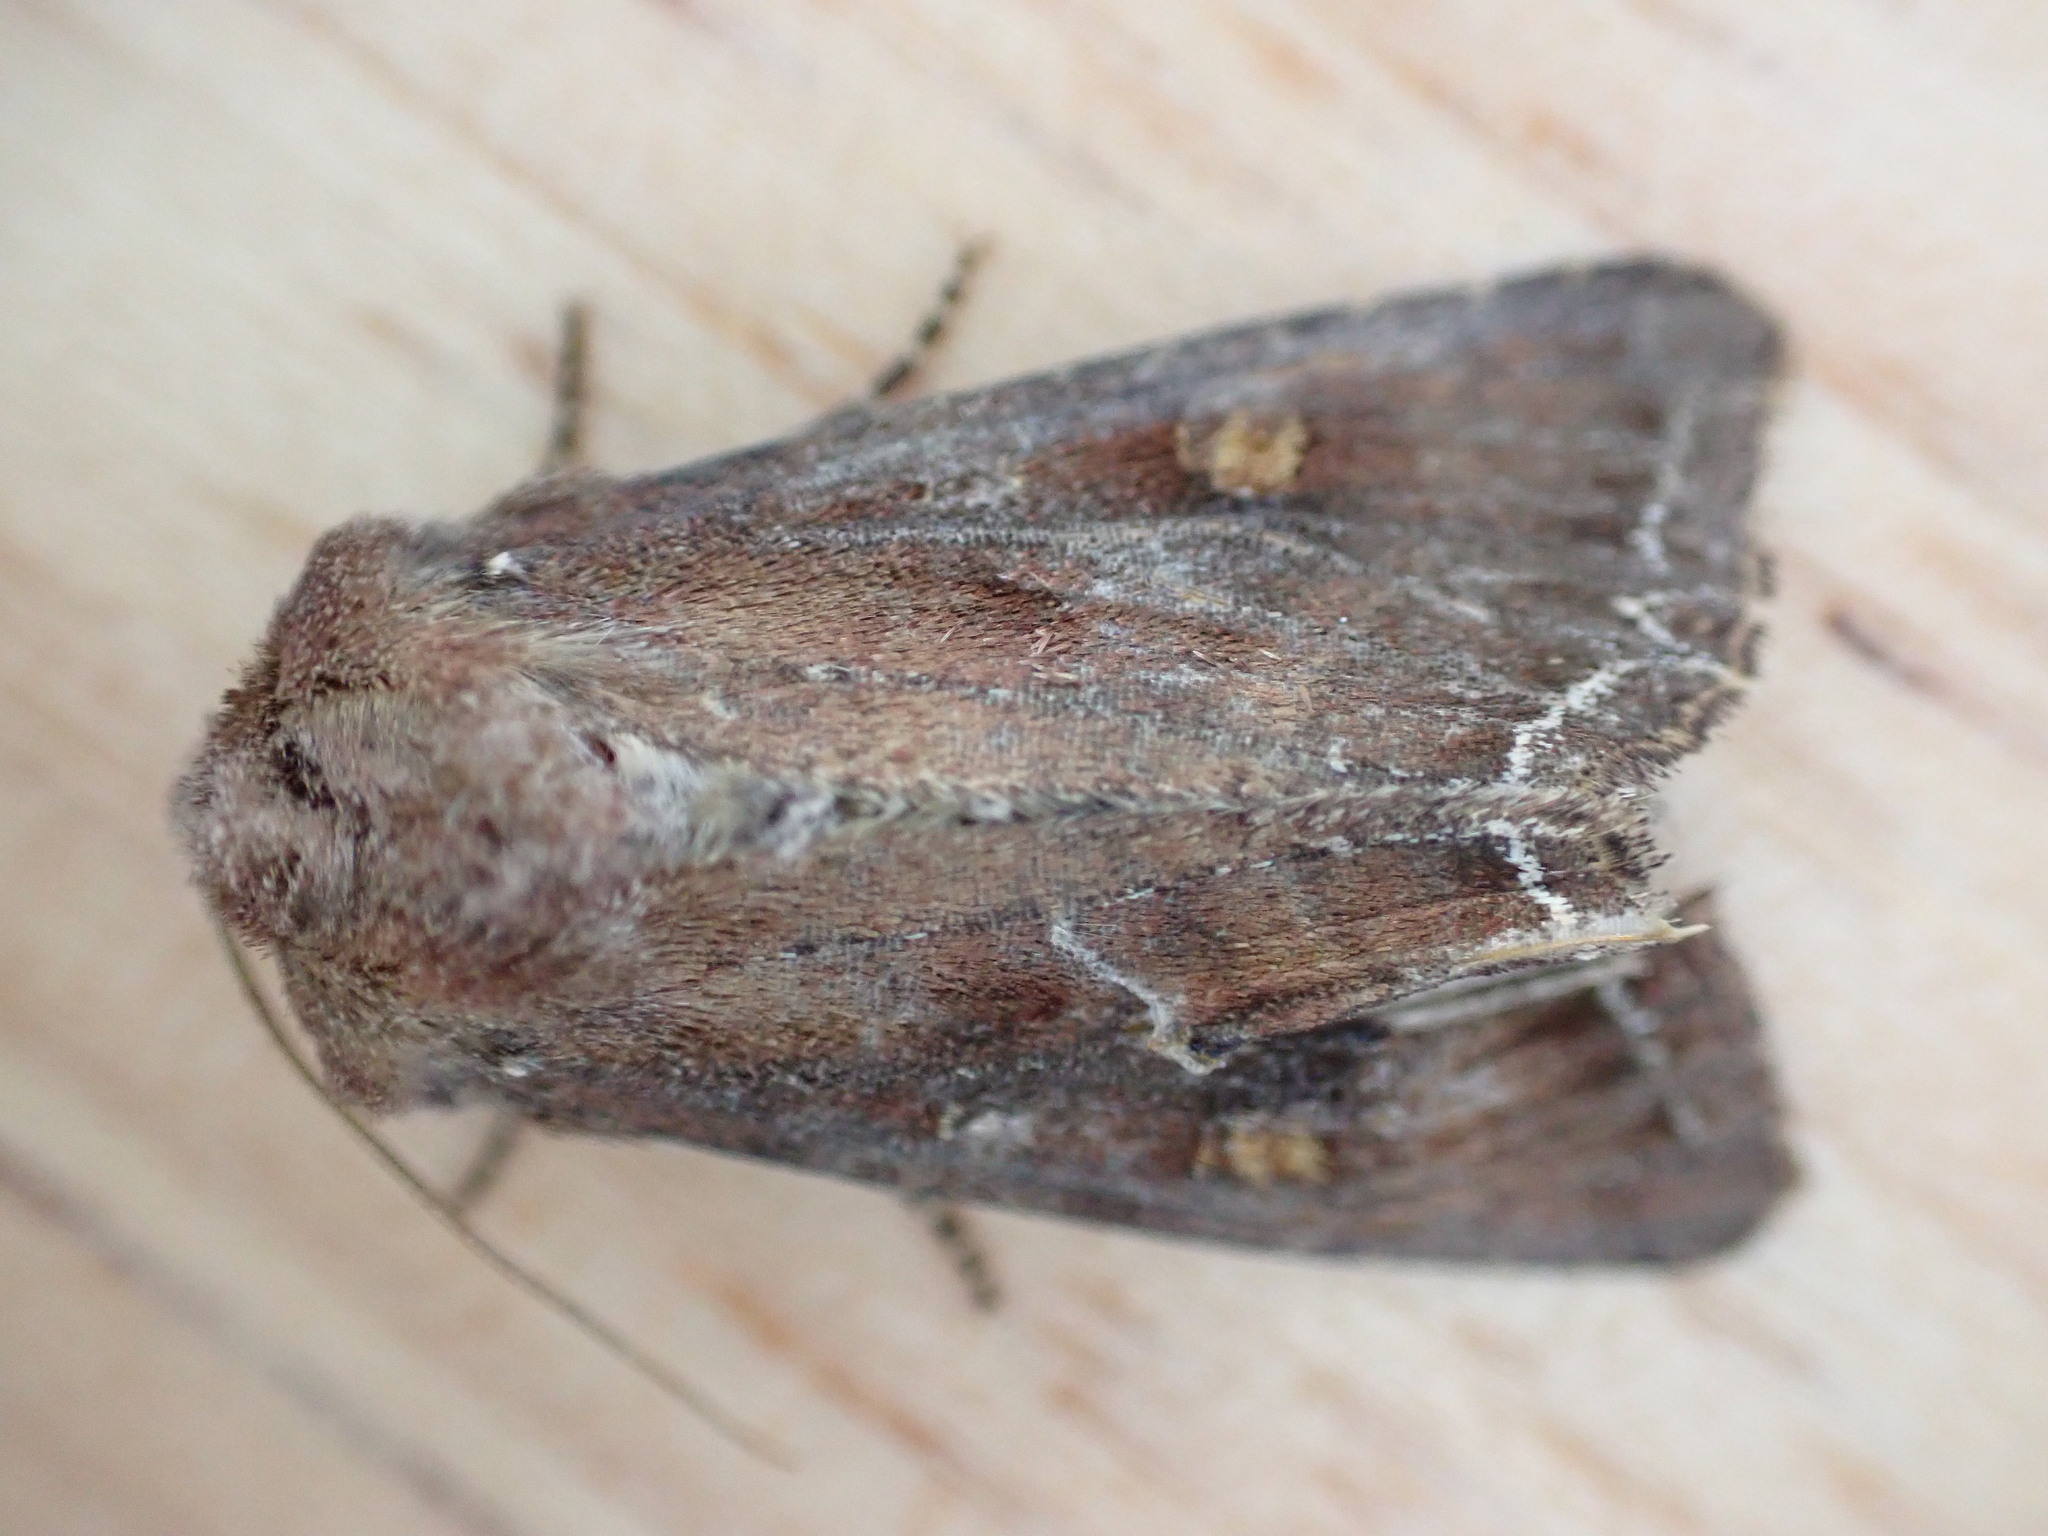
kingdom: Animalia
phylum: Arthropoda
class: Insecta
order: Lepidoptera
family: Noctuidae
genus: Lacanobia
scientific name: Lacanobia oleracea
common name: Bright-line brown-eye
